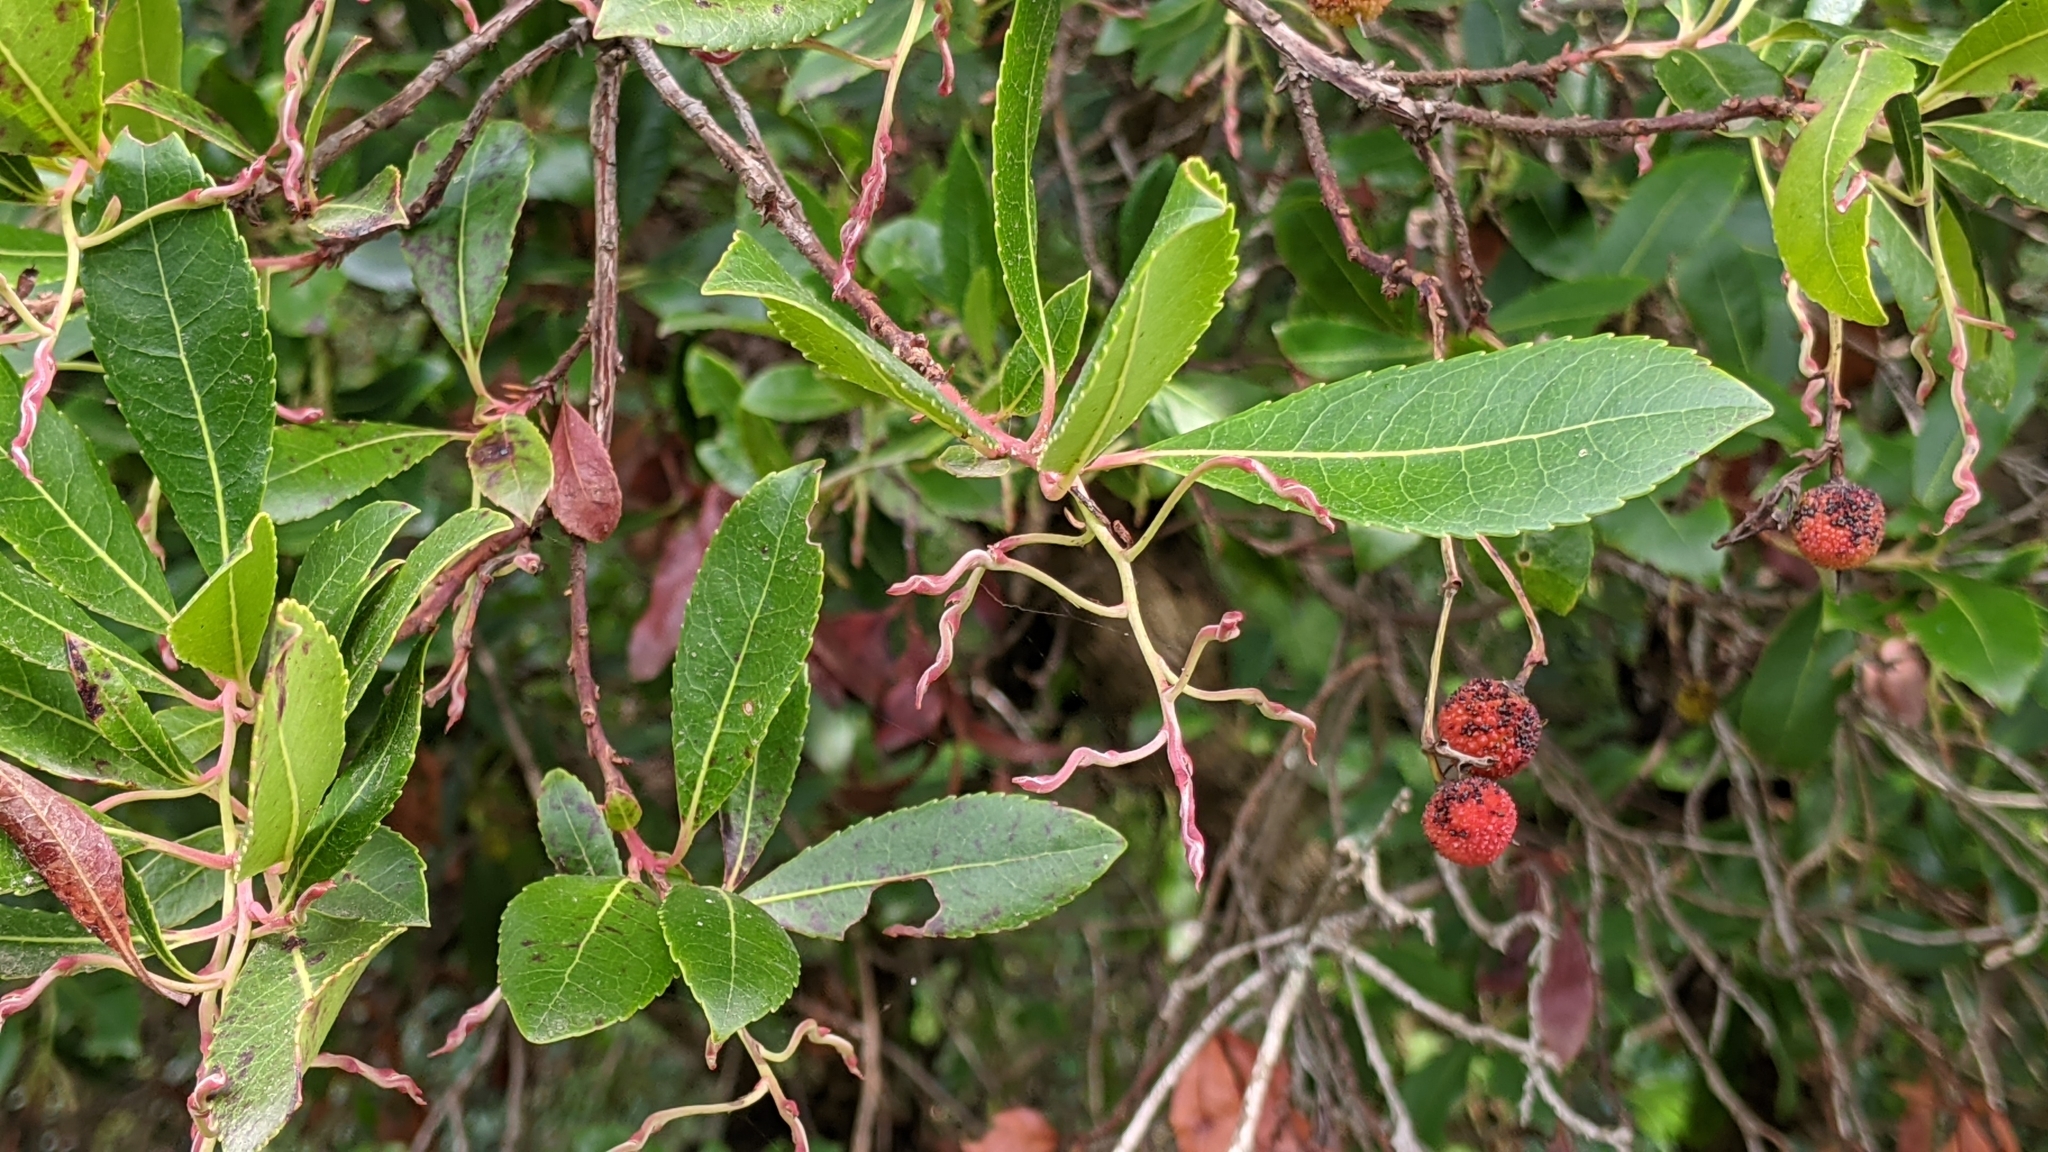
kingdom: Plantae
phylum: Tracheophyta
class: Magnoliopsida
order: Ericales
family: Ericaceae
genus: Arbutus
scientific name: Arbutus unedo
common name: Strawberry-tree
